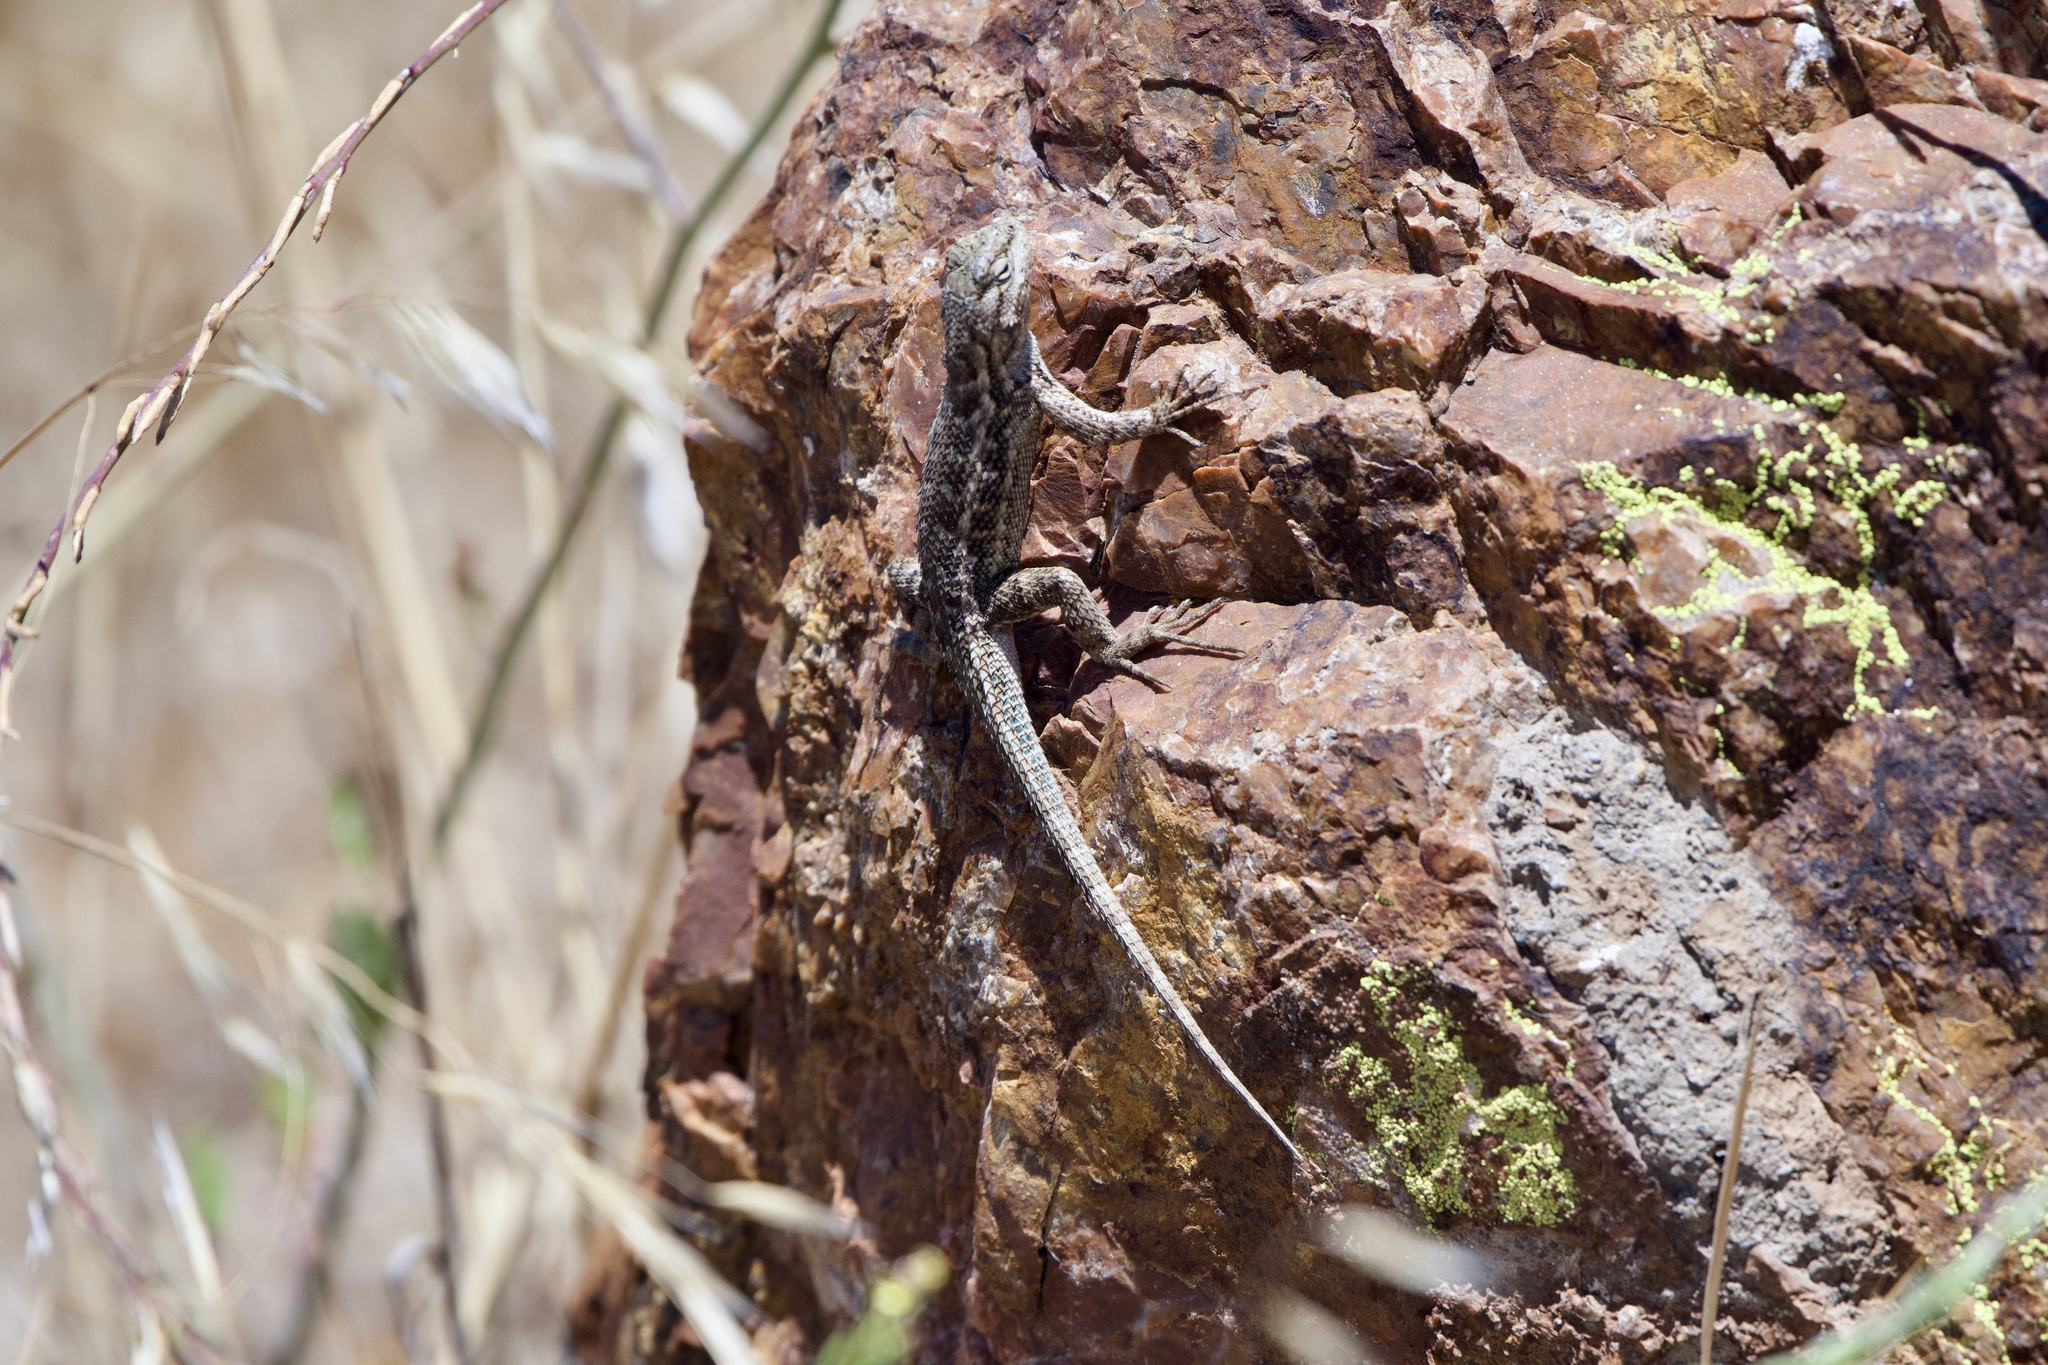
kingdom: Animalia
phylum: Chordata
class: Squamata
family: Phrynosomatidae
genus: Sceloporus
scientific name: Sceloporus occidentalis
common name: Western fence lizard
